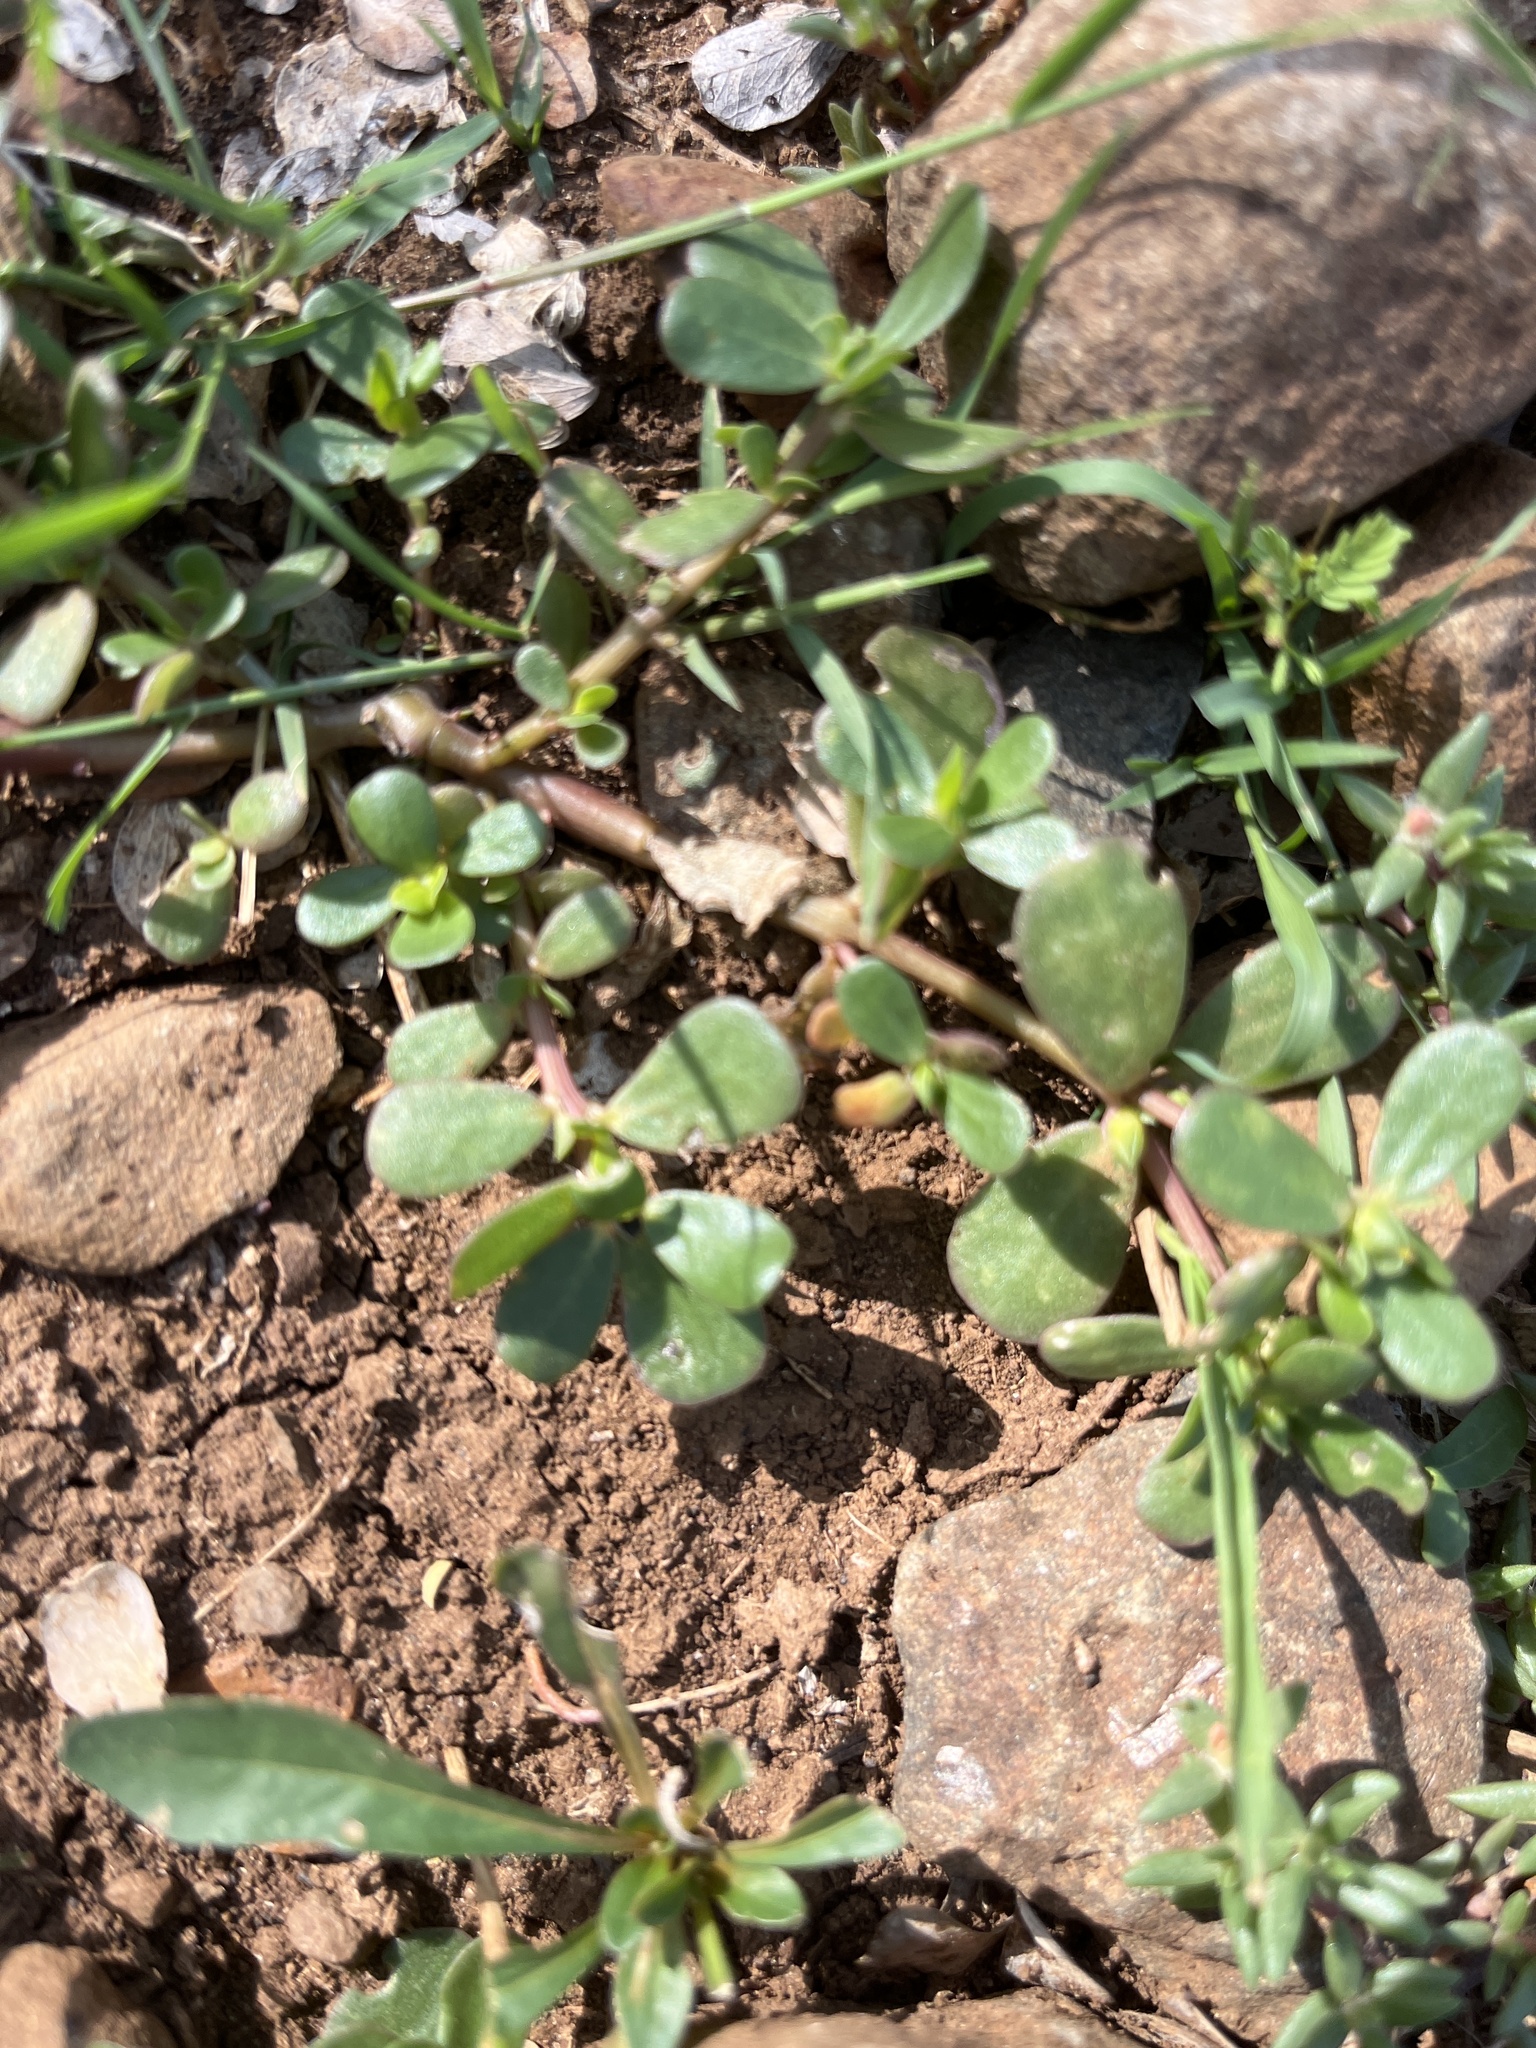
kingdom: Plantae
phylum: Tracheophyta
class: Magnoliopsida
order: Caryophyllales
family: Portulacaceae
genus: Portulaca
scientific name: Portulaca oleracea
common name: Common purslane
